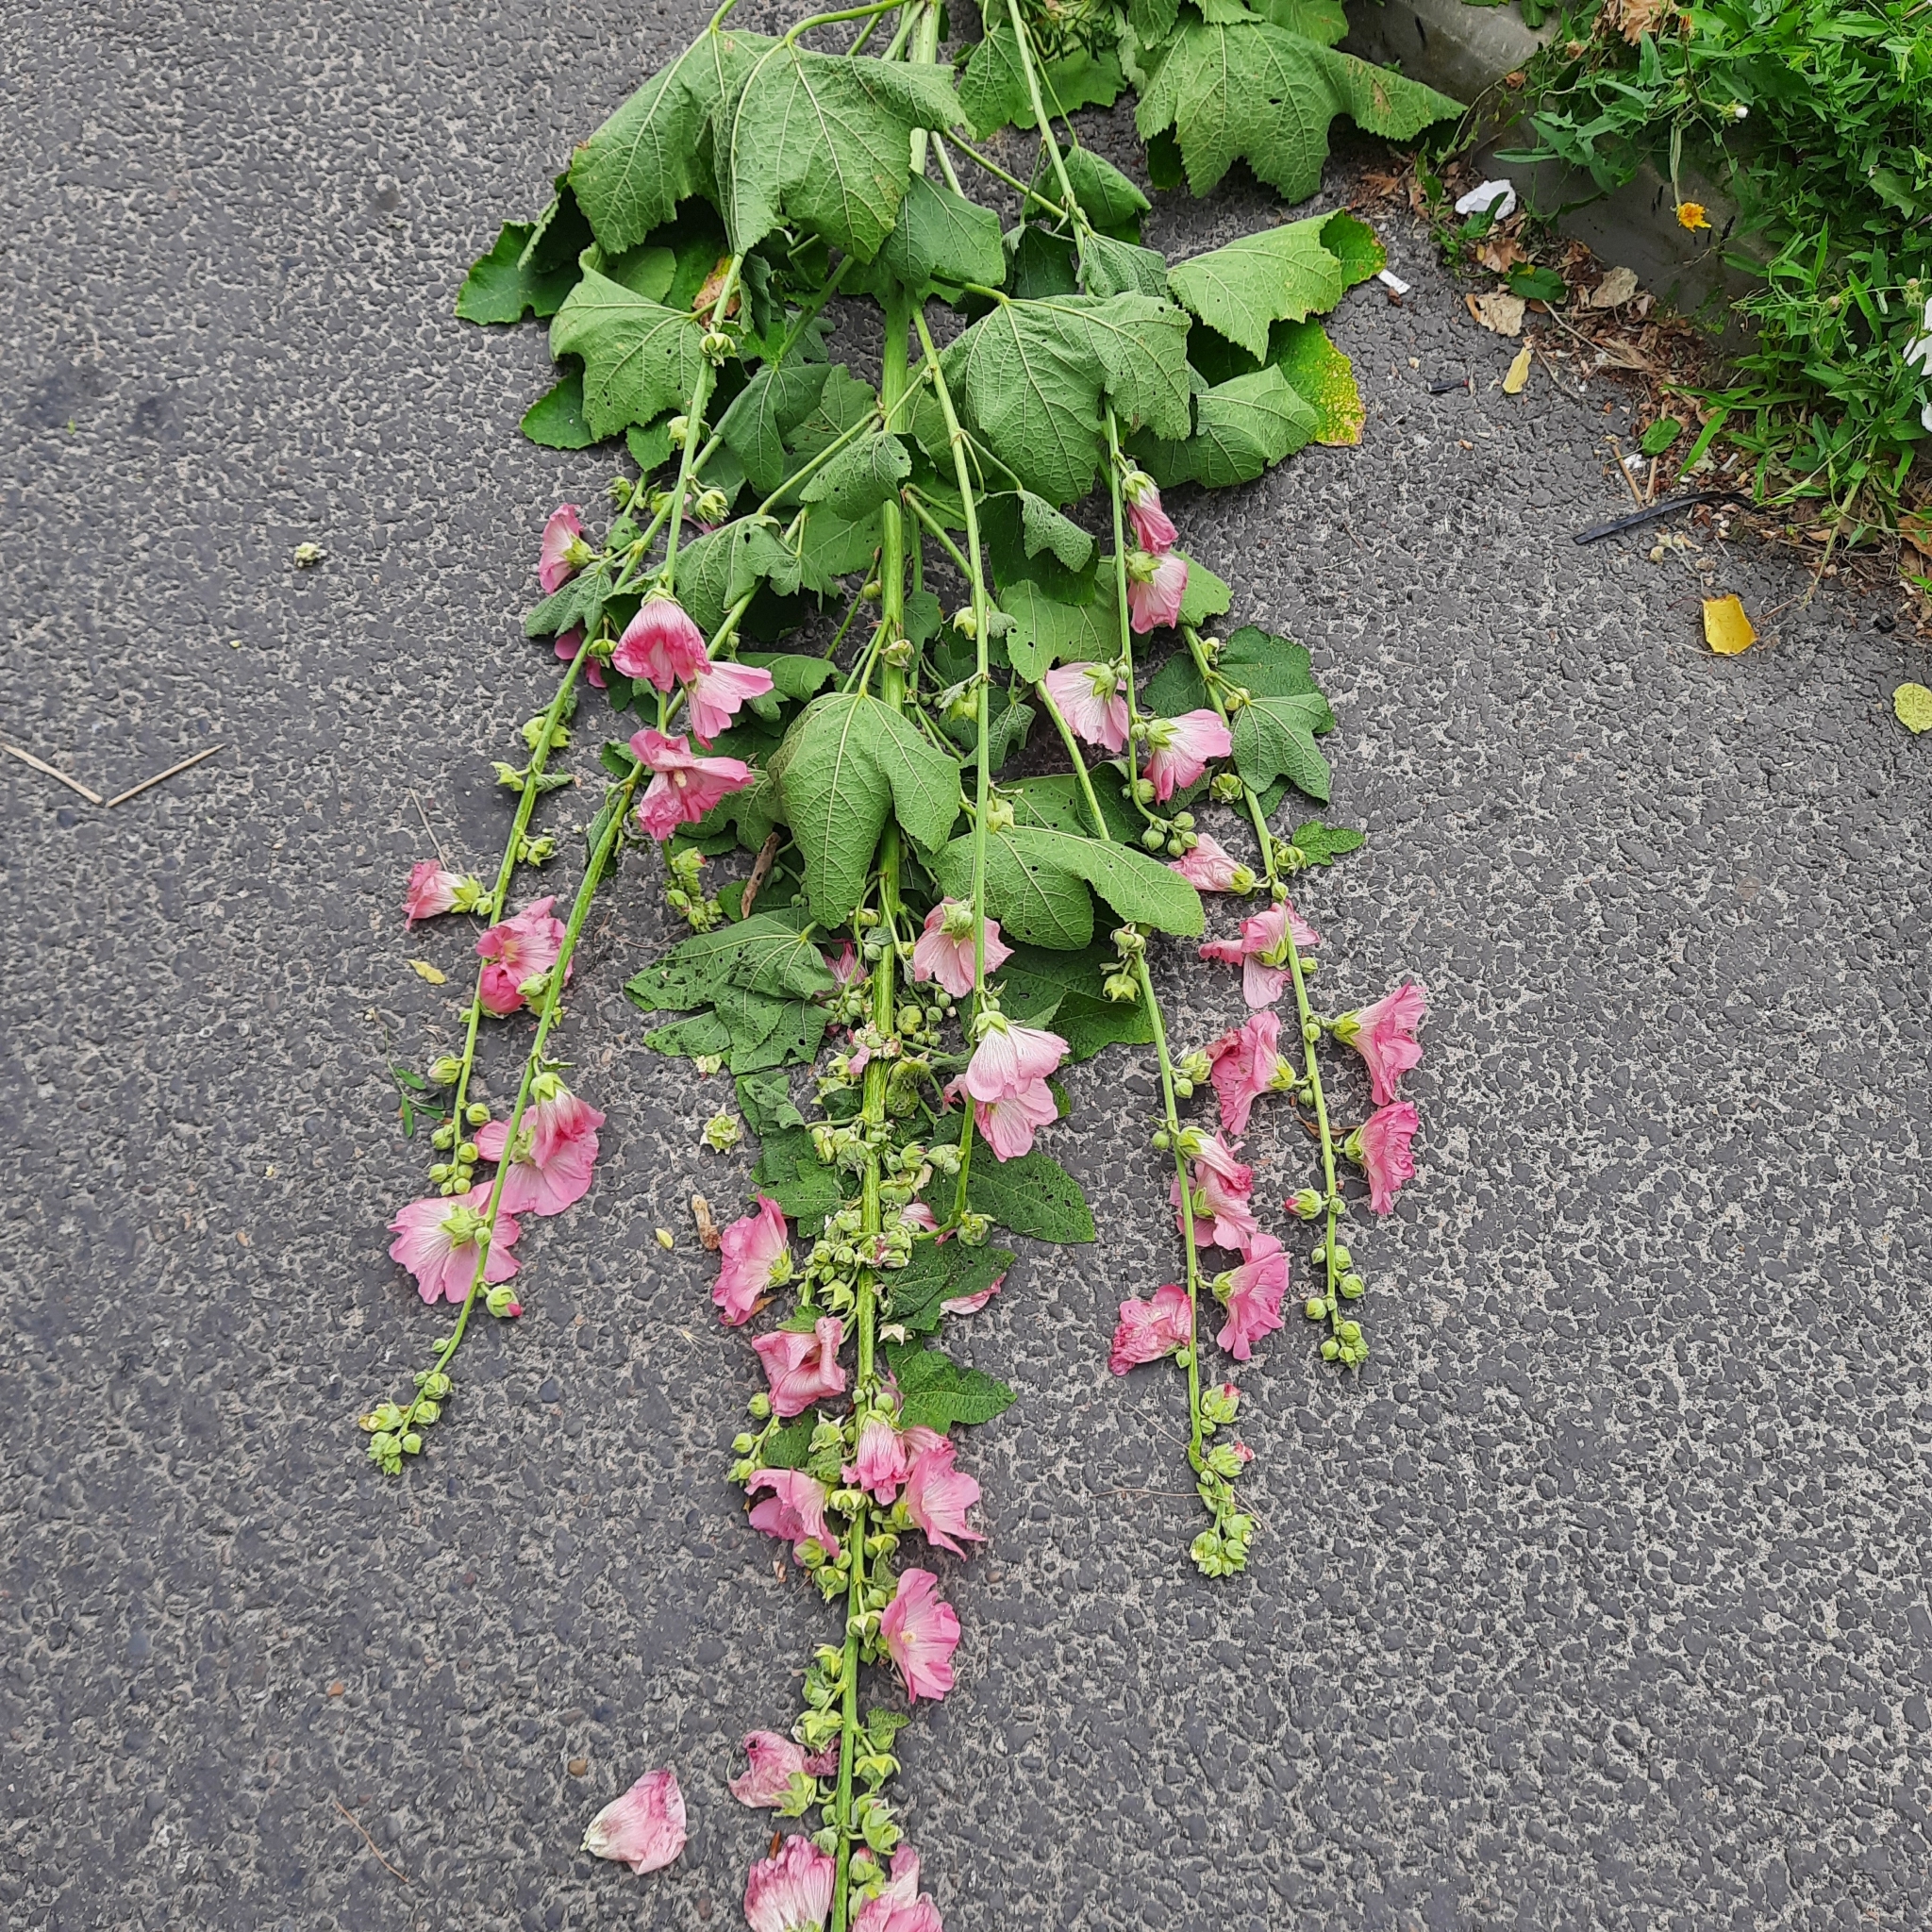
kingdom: Plantae
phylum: Tracheophyta
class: Magnoliopsida
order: Malvales
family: Malvaceae
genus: Alcea
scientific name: Alcea rosea
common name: Hollyhock
